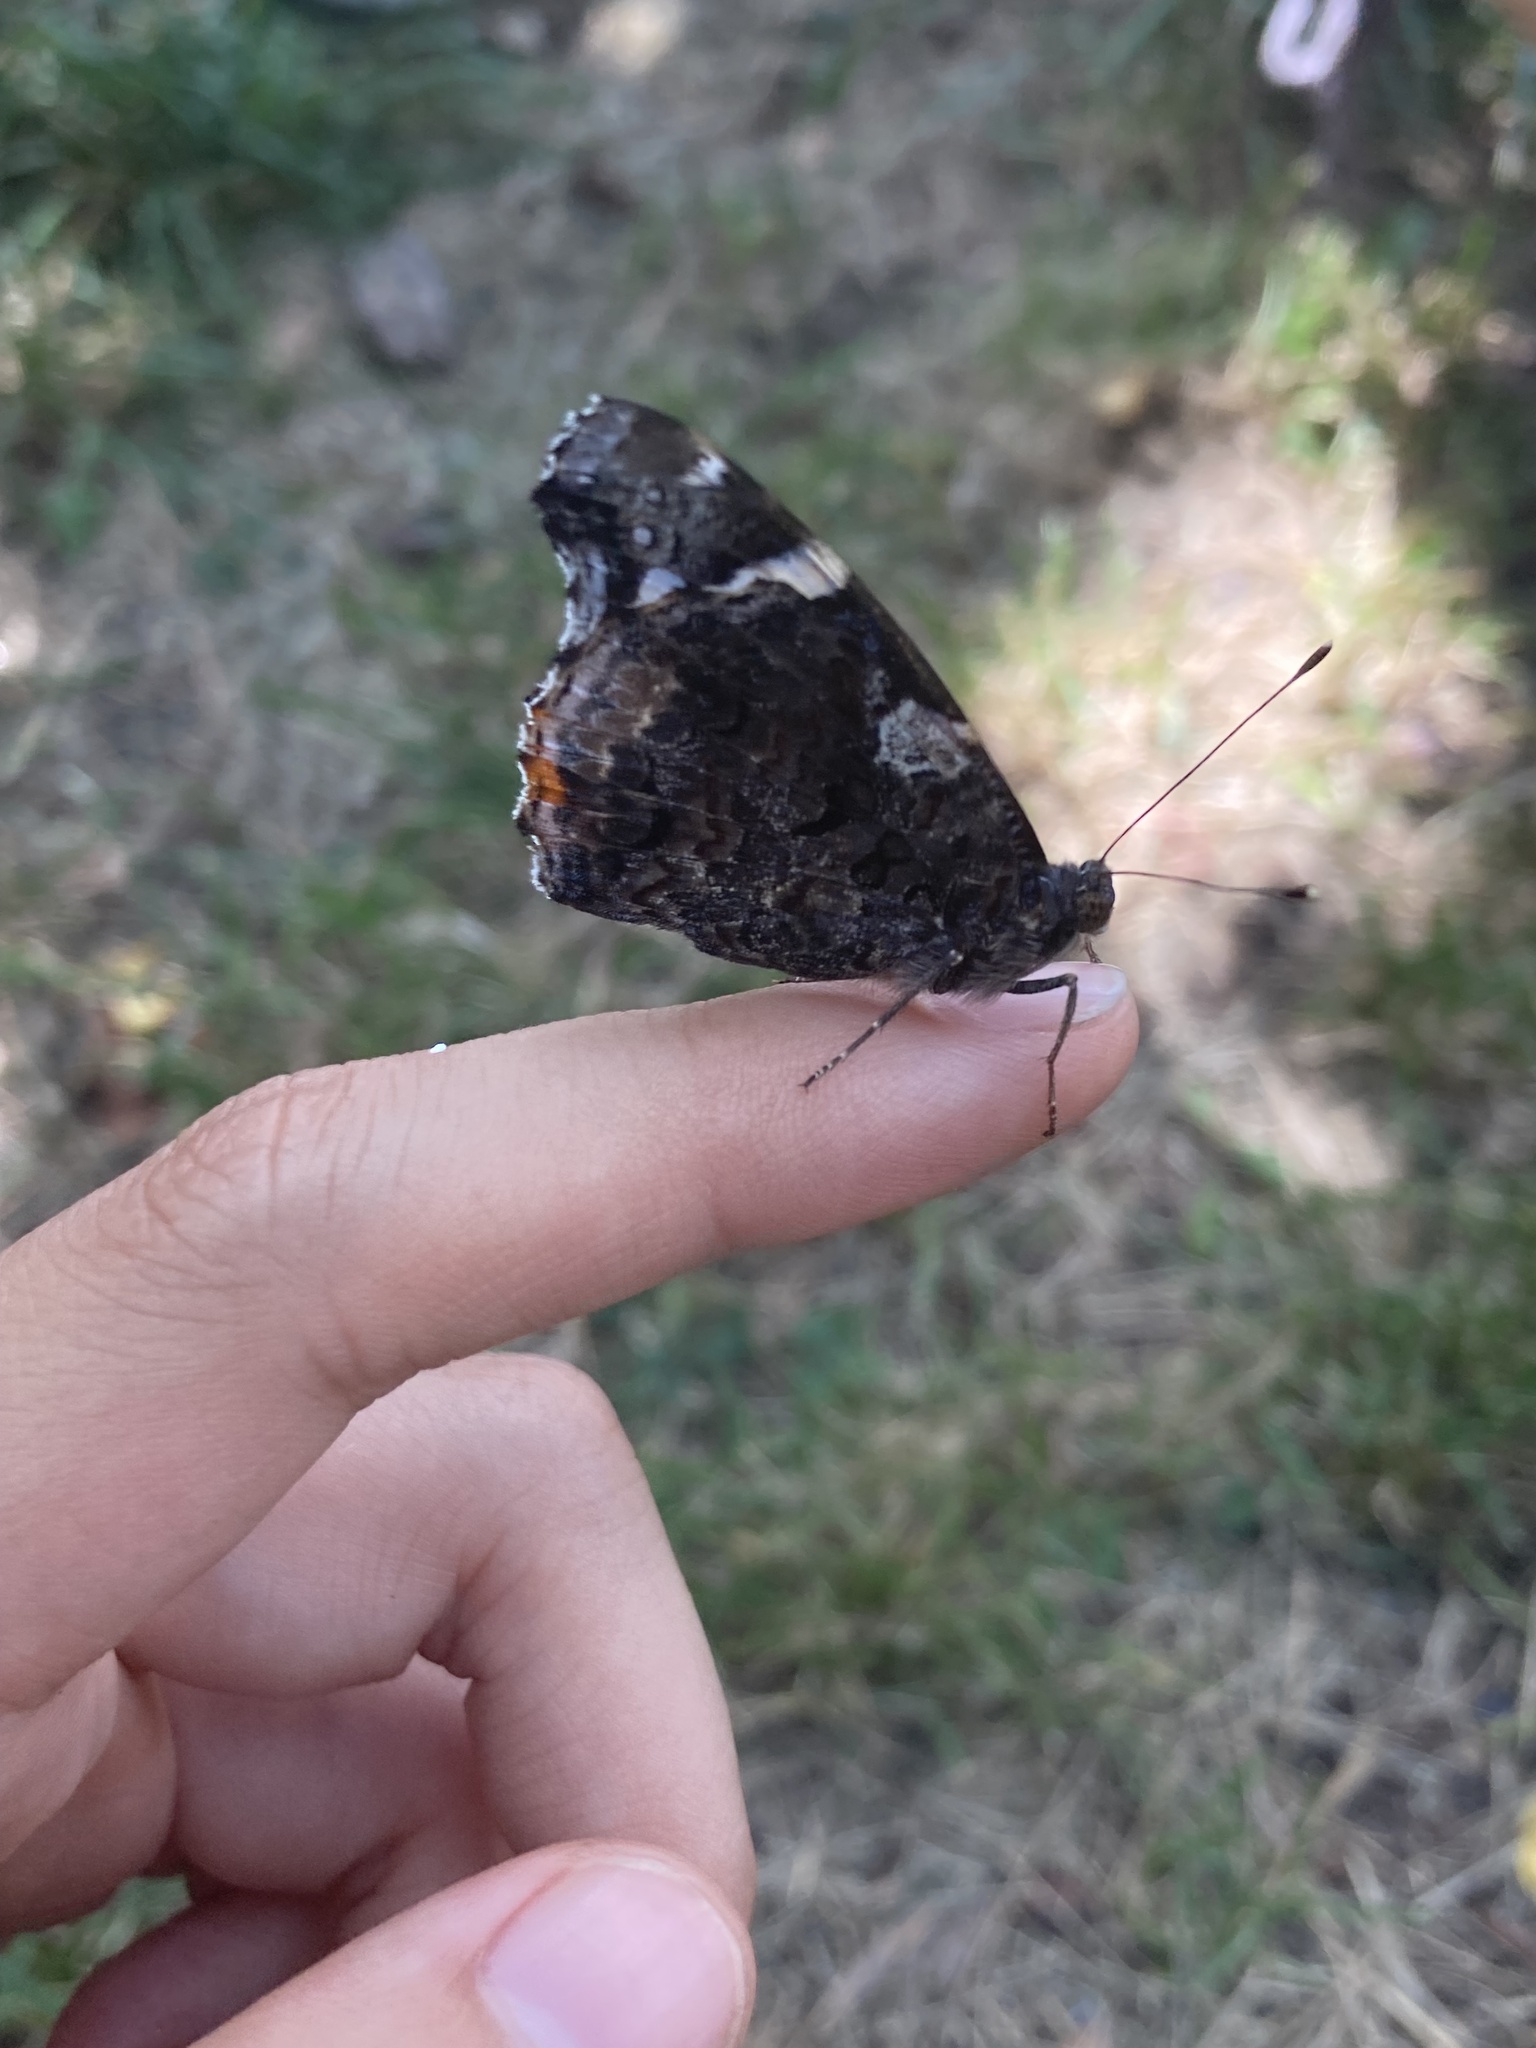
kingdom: Animalia
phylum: Arthropoda
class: Insecta
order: Lepidoptera
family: Nymphalidae
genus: Vanessa
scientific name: Vanessa atalanta
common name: Red admiral
